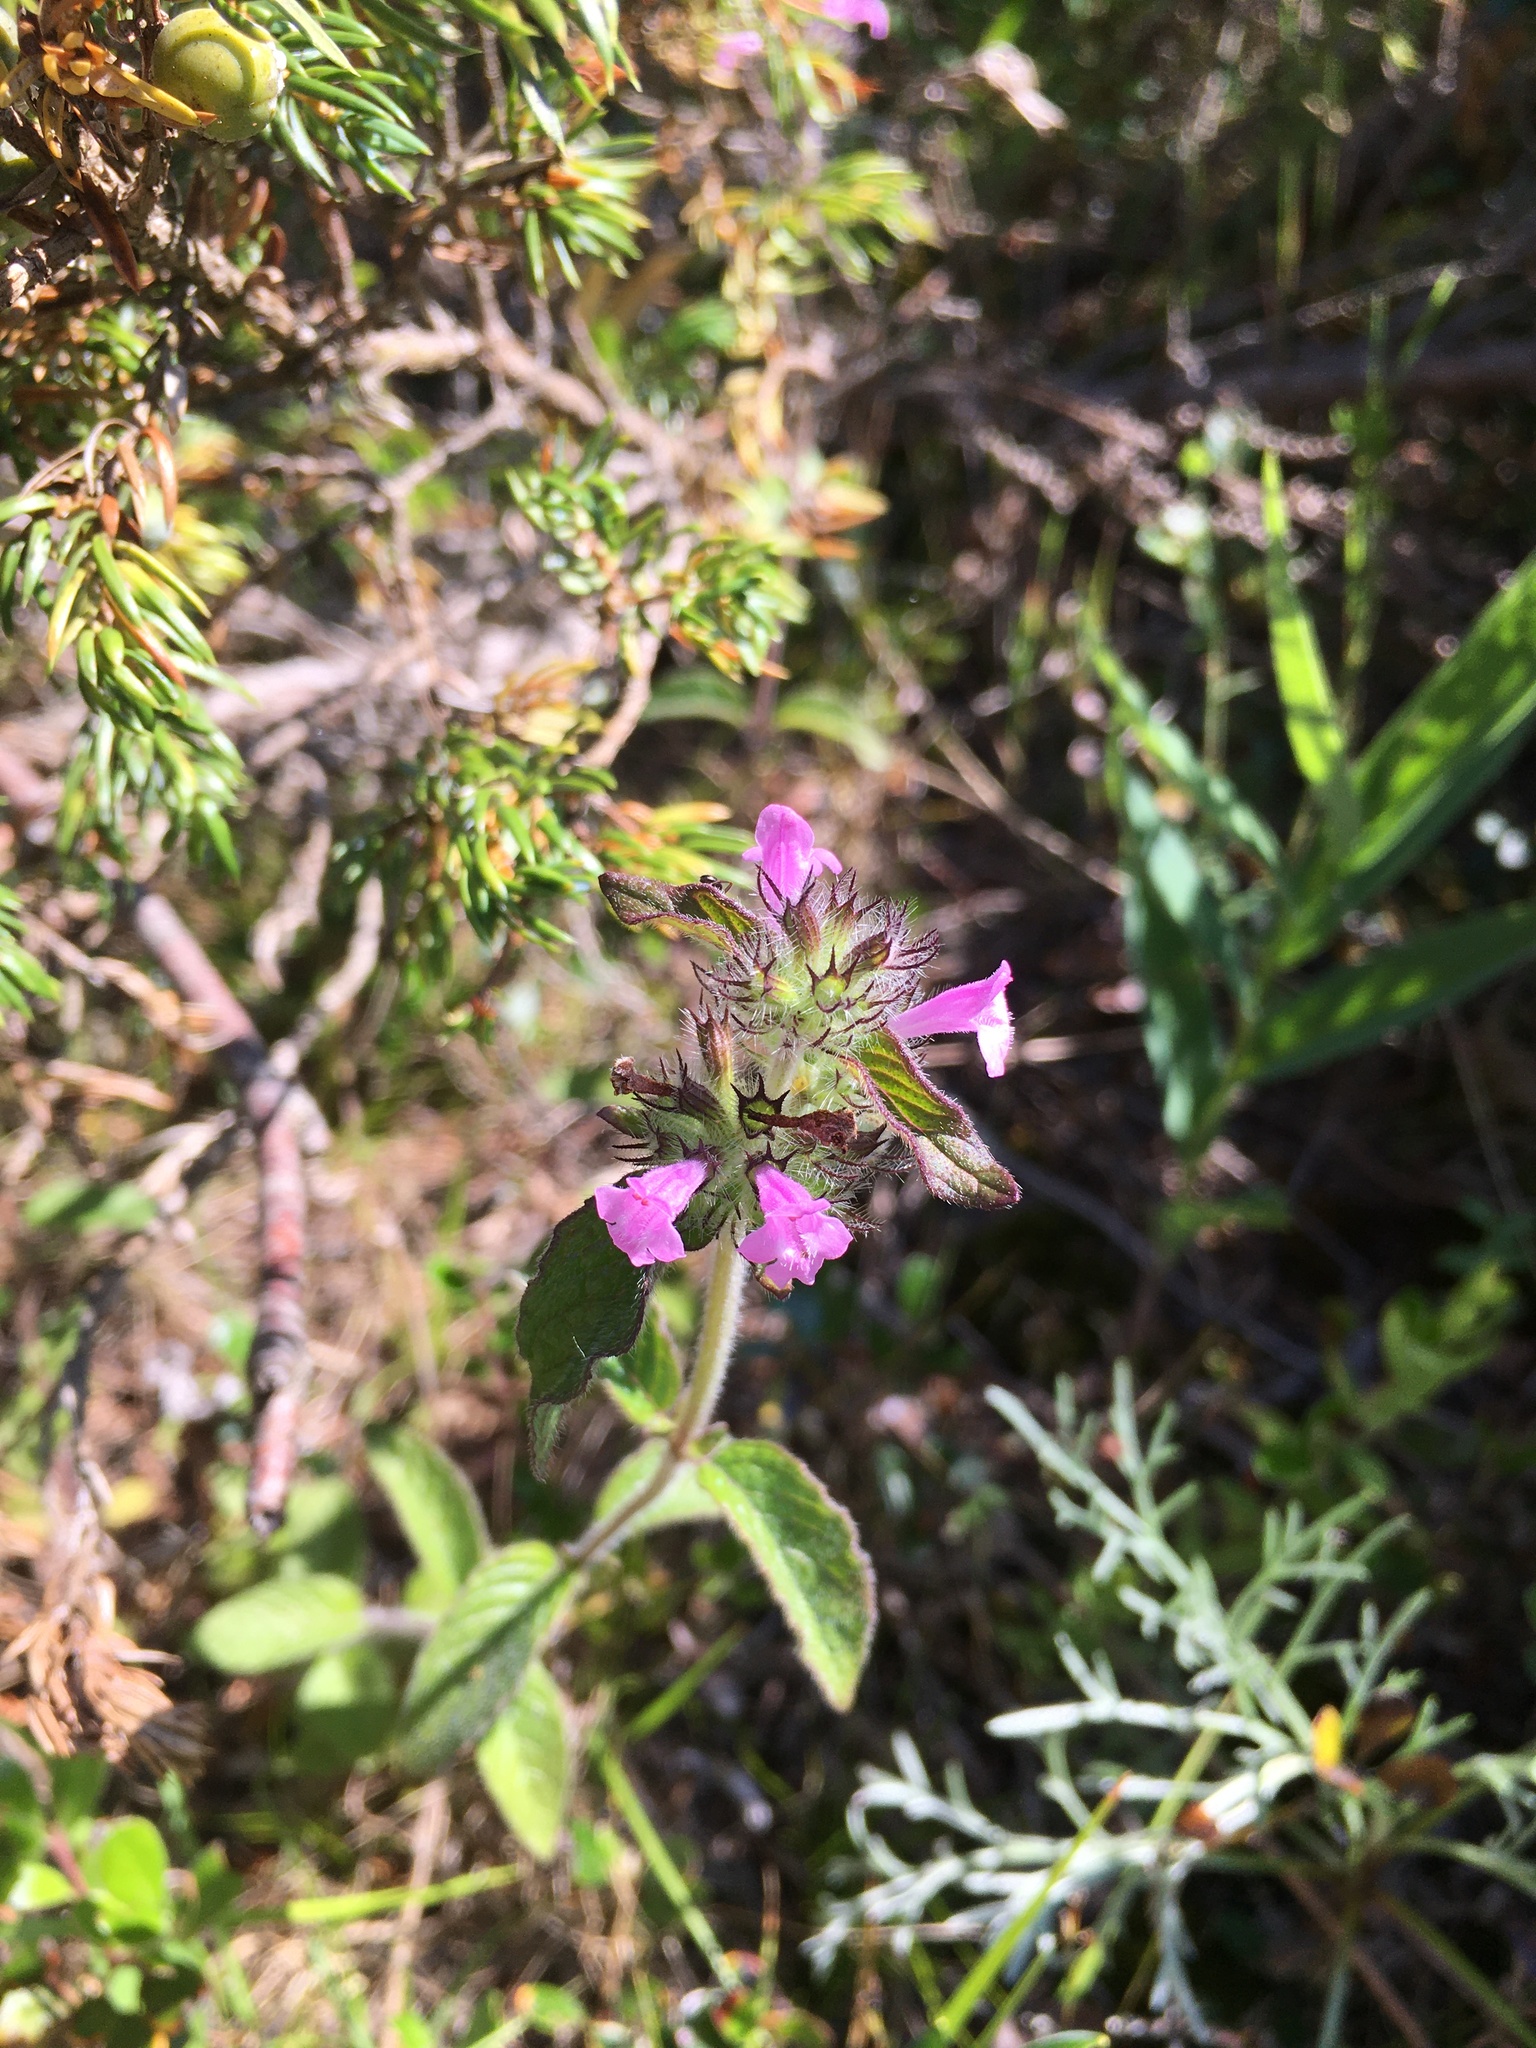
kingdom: Plantae
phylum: Tracheophyta
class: Magnoliopsida
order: Lamiales
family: Lamiaceae
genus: Clinopodium
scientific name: Clinopodium vulgare
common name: Wild basil
